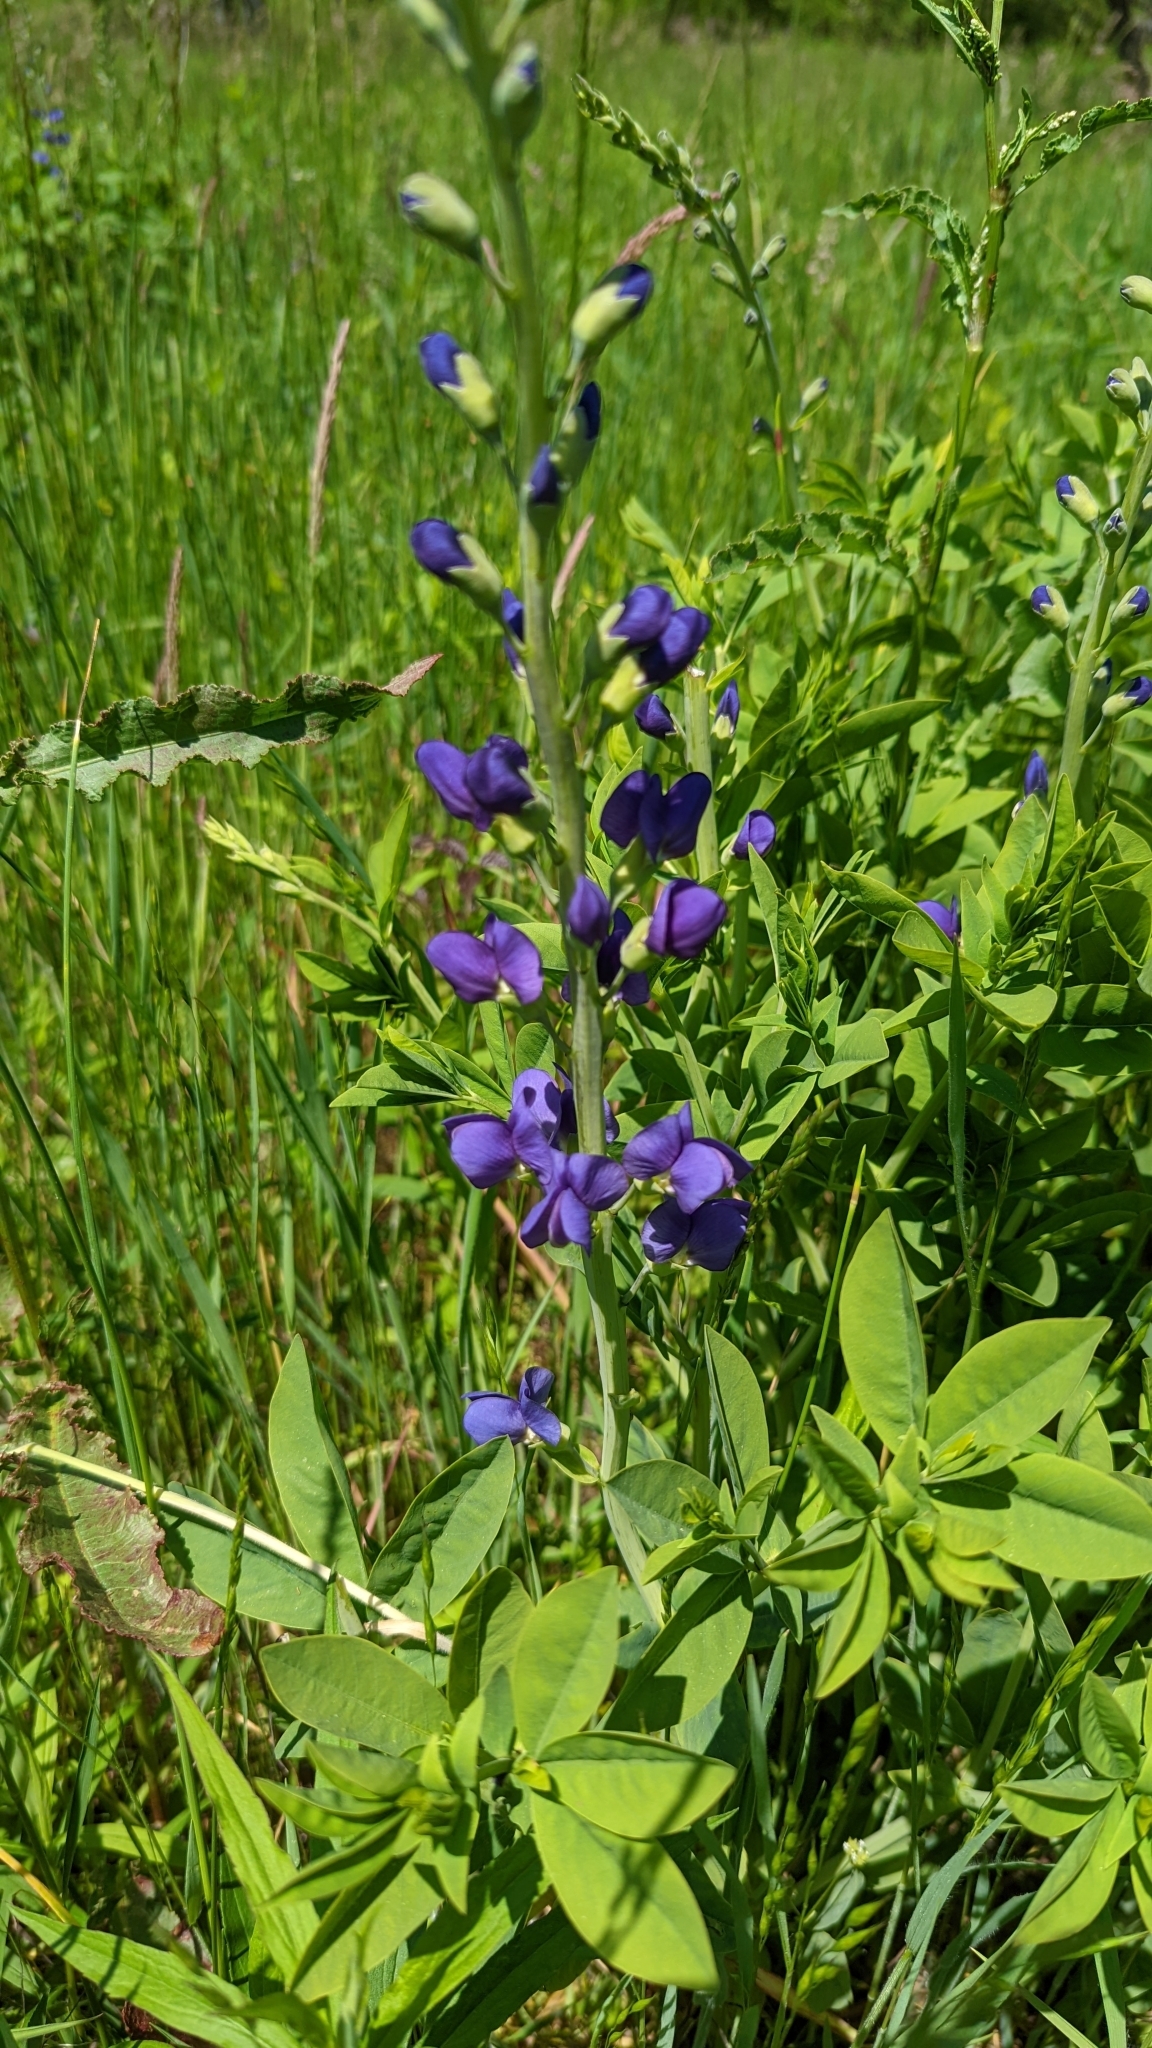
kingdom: Plantae
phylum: Tracheophyta
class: Magnoliopsida
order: Fabales
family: Fabaceae
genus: Baptisia
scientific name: Baptisia australis
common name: Blue false indigo
